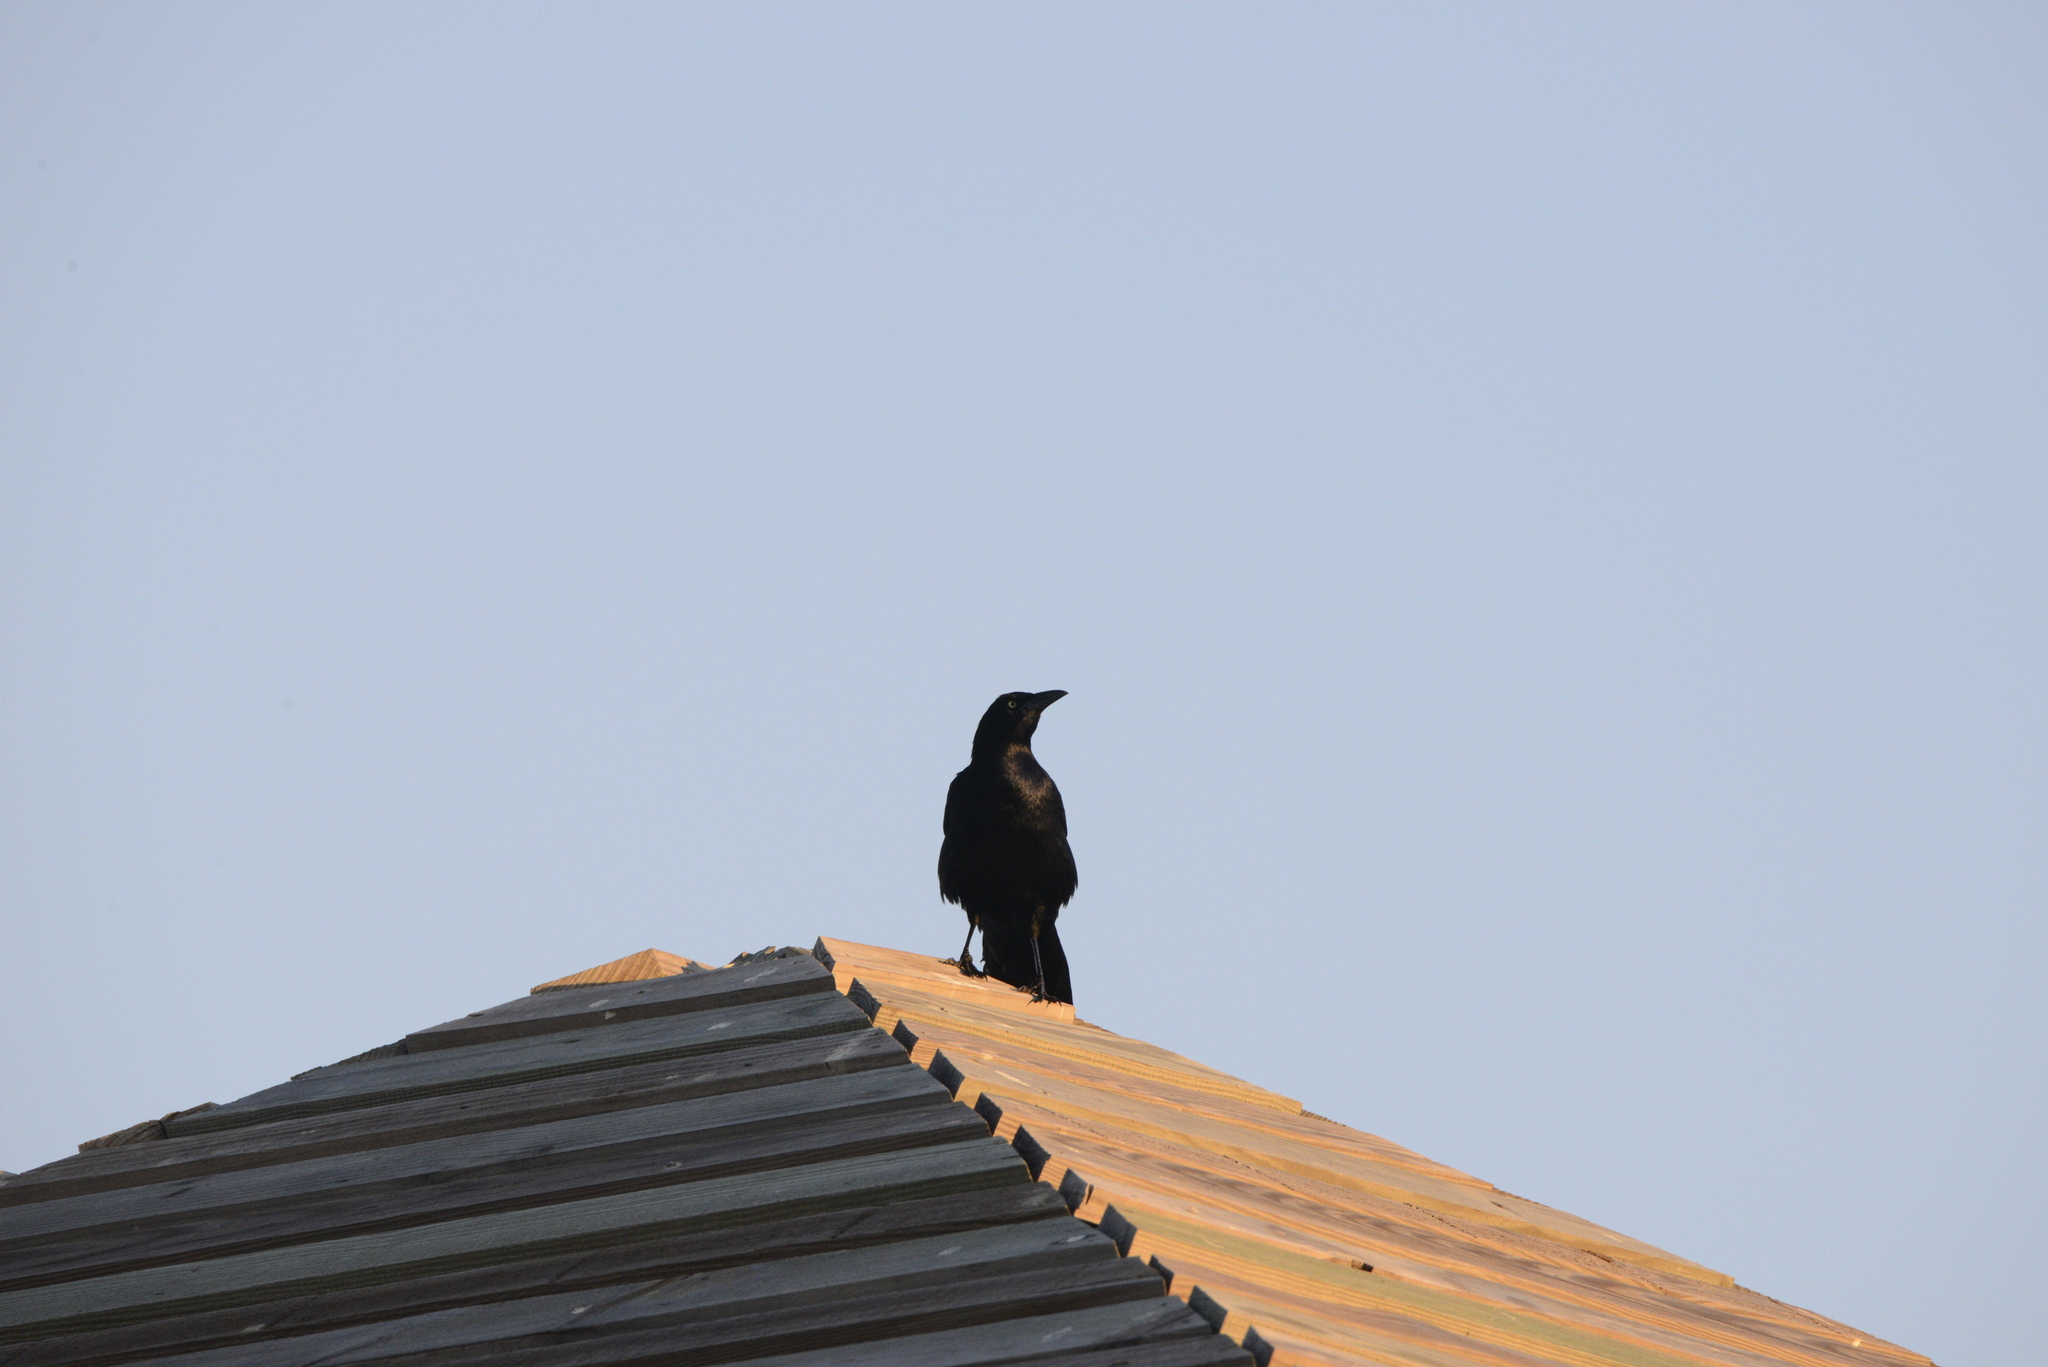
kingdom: Animalia
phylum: Chordata
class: Aves
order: Passeriformes
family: Icteridae
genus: Quiscalus
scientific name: Quiscalus mexicanus
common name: Great-tailed grackle
